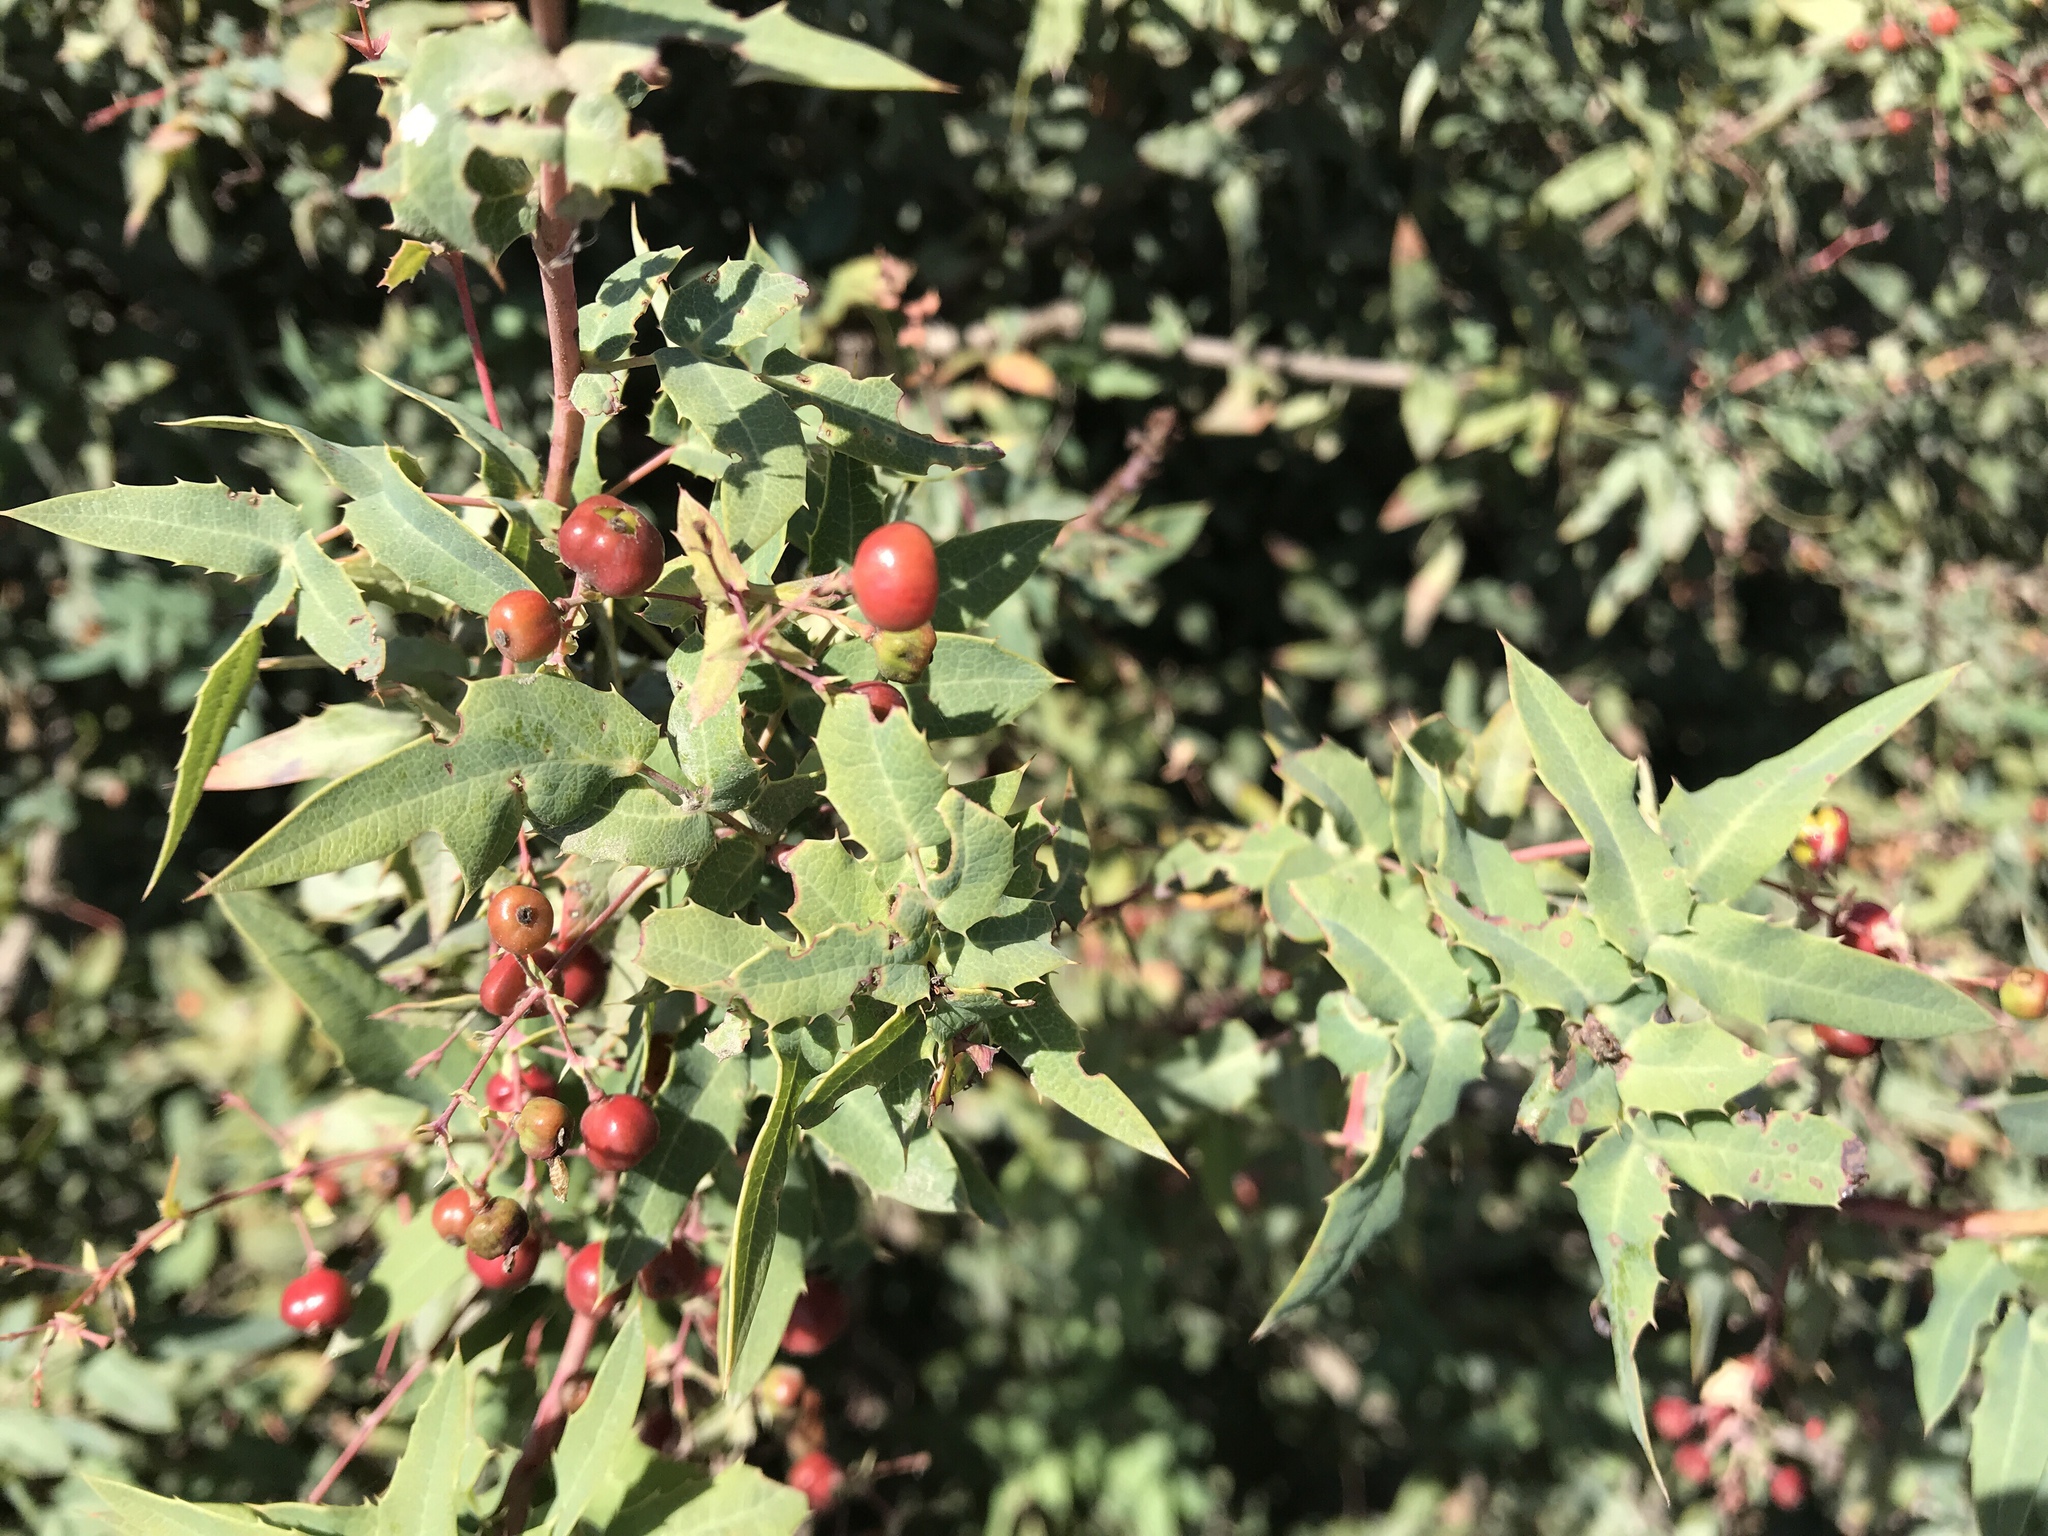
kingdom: Plantae
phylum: Tracheophyta
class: Magnoliopsida
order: Ranunculales
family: Berberidaceae
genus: Alloberberis
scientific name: Alloberberis nevinii
